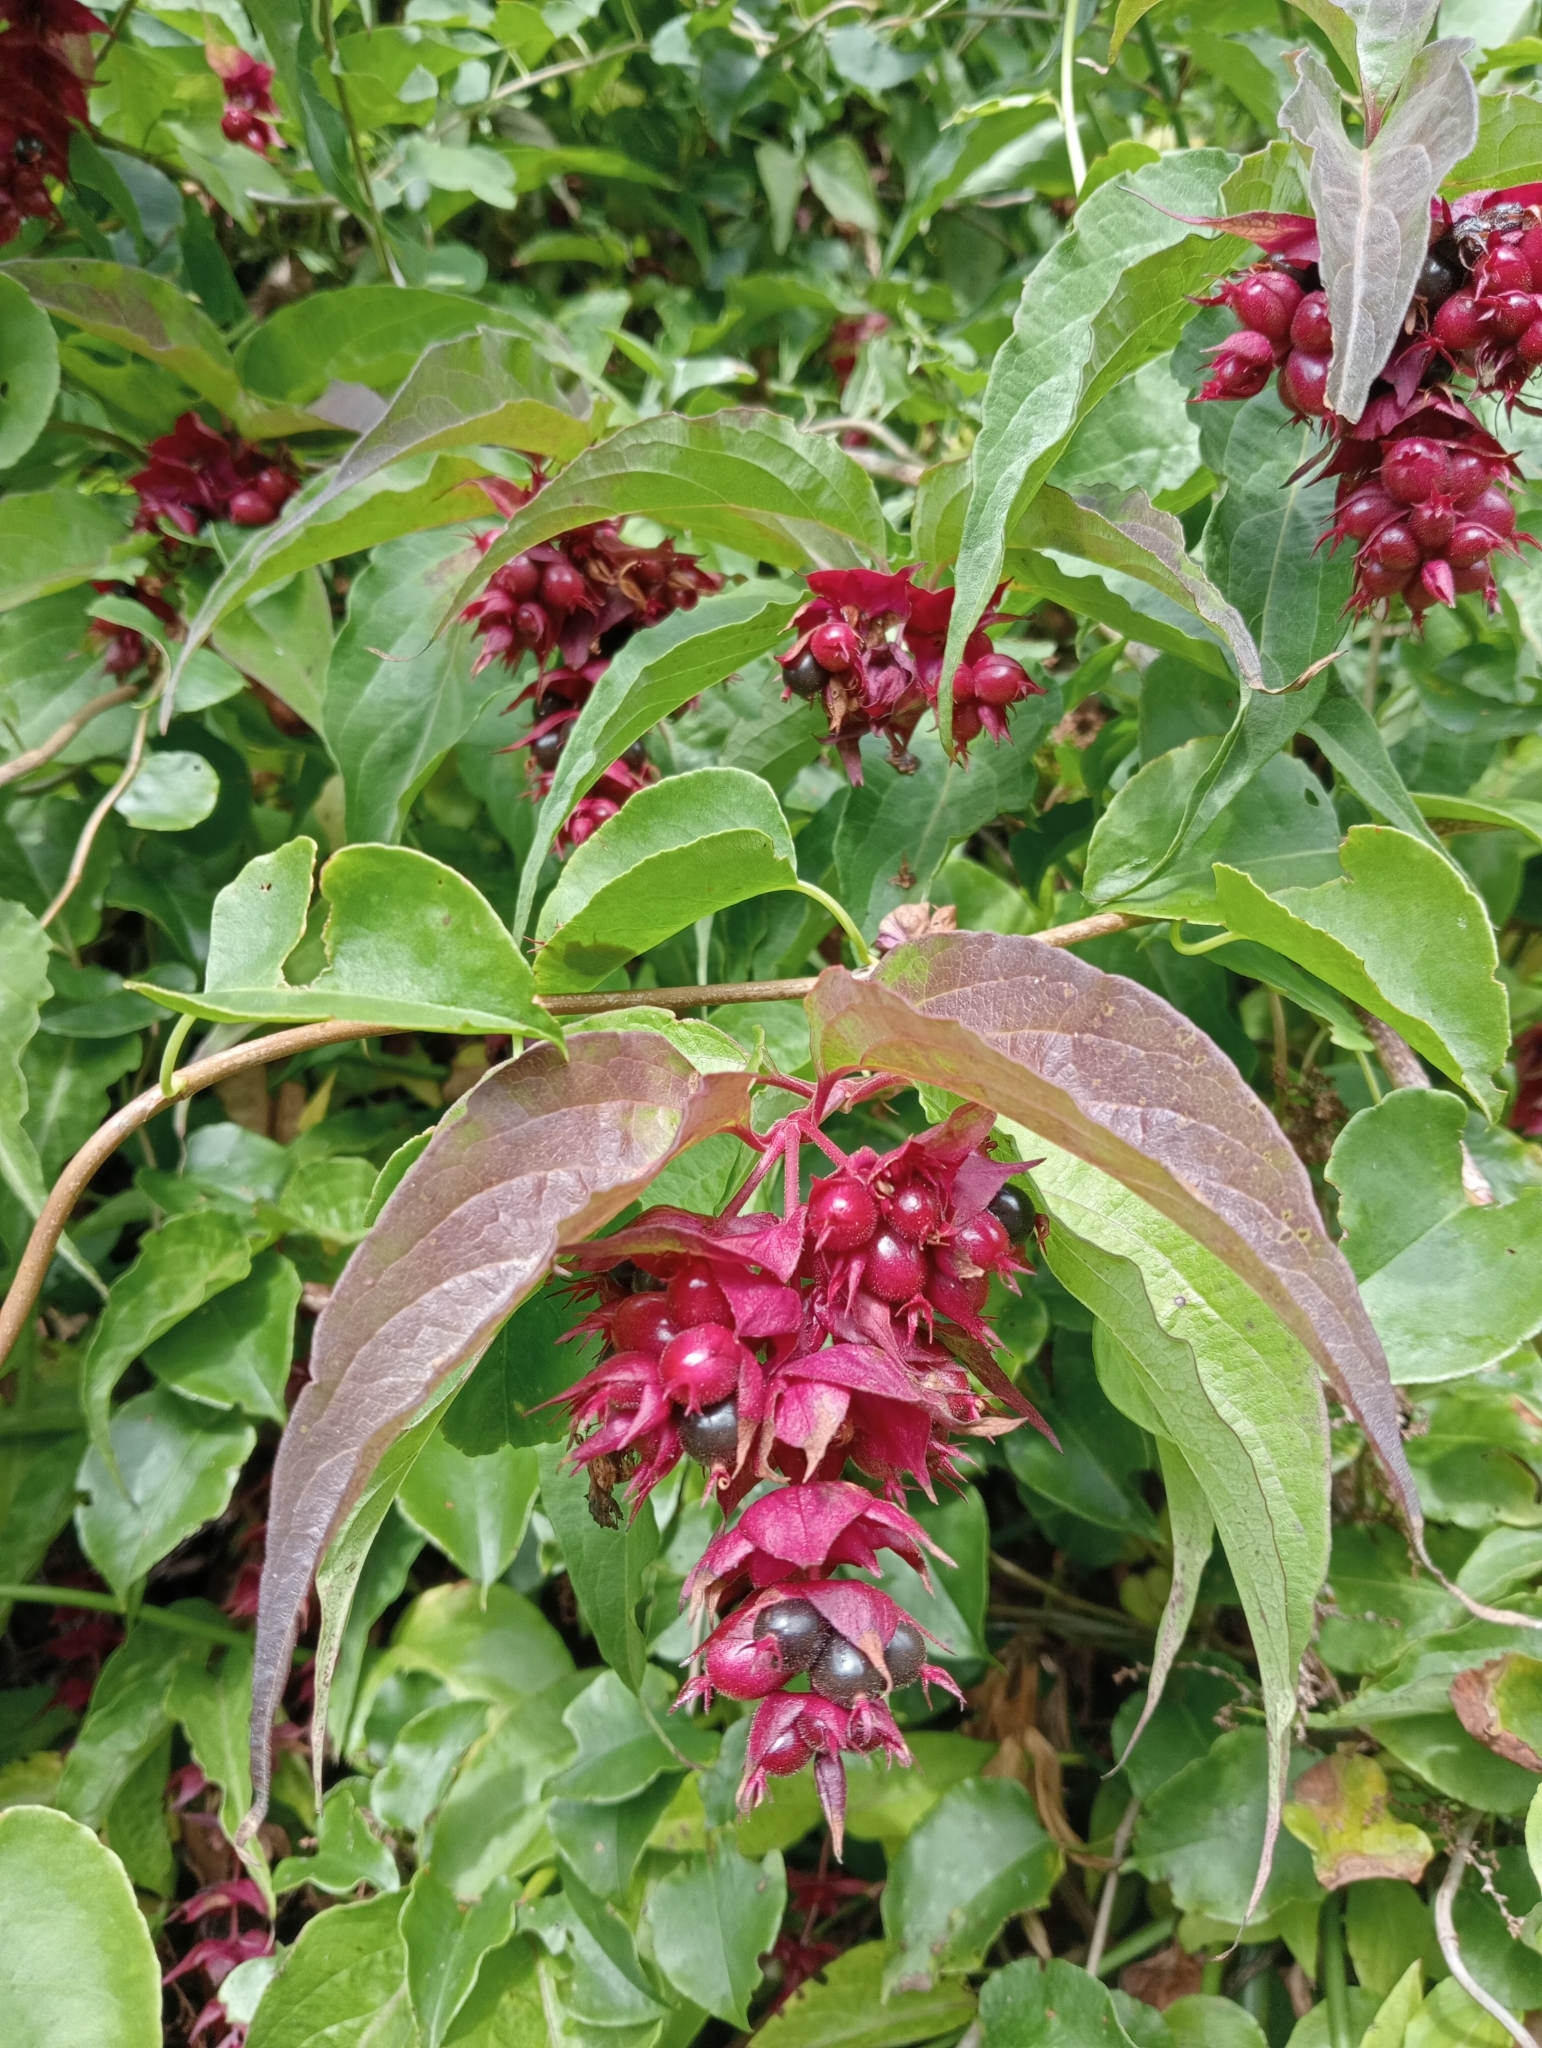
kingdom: Plantae
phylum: Tracheophyta
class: Magnoliopsida
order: Dipsacales
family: Caprifoliaceae
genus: Leycesteria
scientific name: Leycesteria formosa
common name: Himalayan honeysuckle
